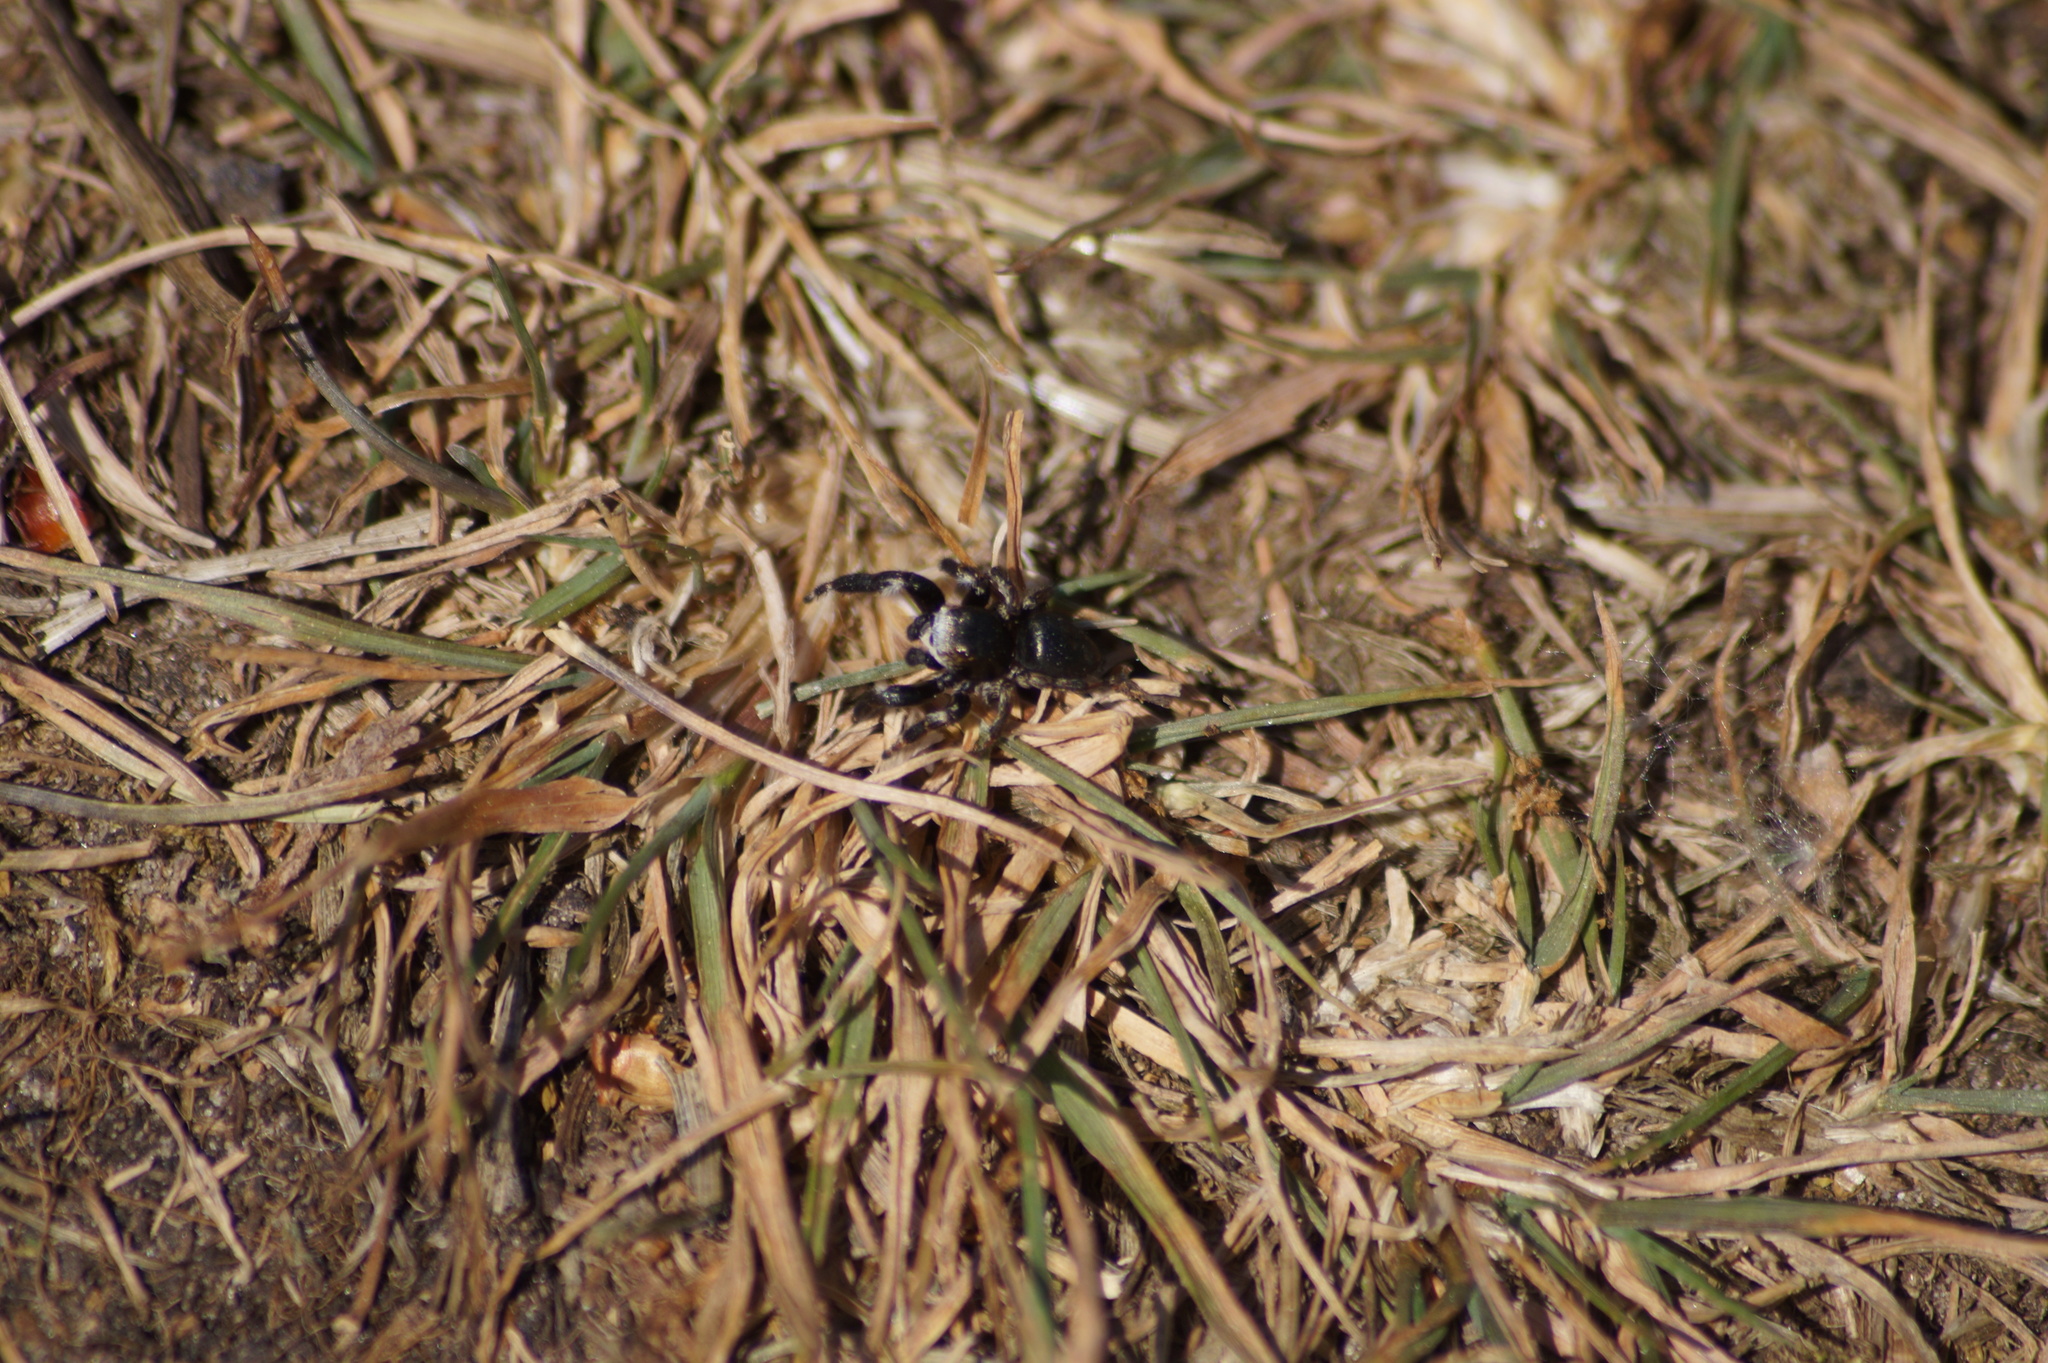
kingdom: Animalia
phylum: Arthropoda
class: Arachnida
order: Araneae
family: Salticidae
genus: Evarcha
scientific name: Evarcha arcuata
